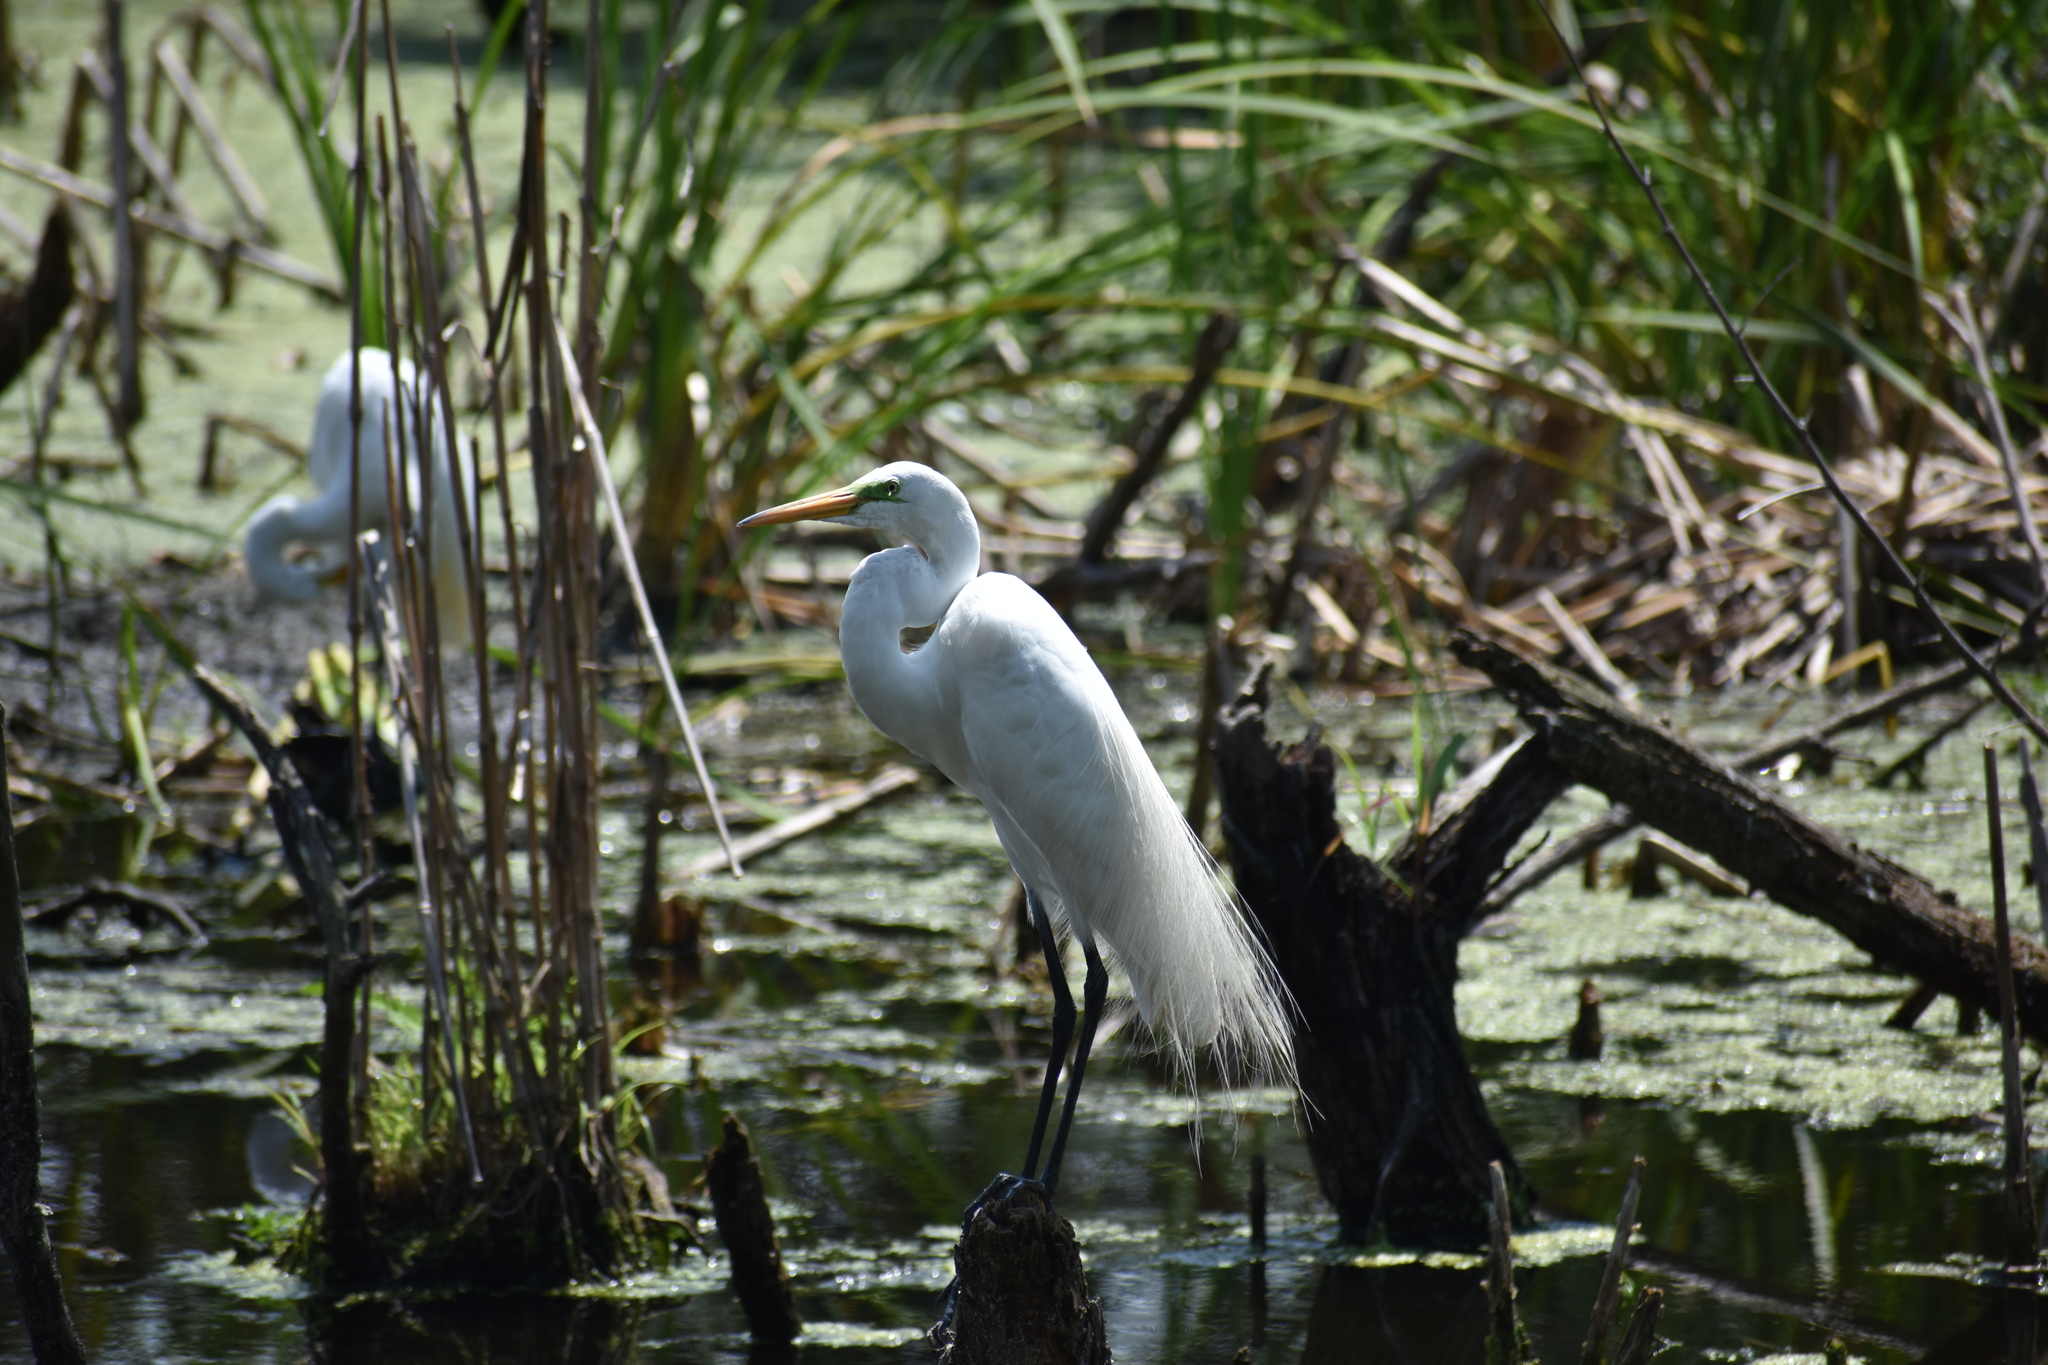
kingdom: Animalia
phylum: Chordata
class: Aves
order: Pelecaniformes
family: Ardeidae
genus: Ardea
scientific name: Ardea alba
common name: Great egret
